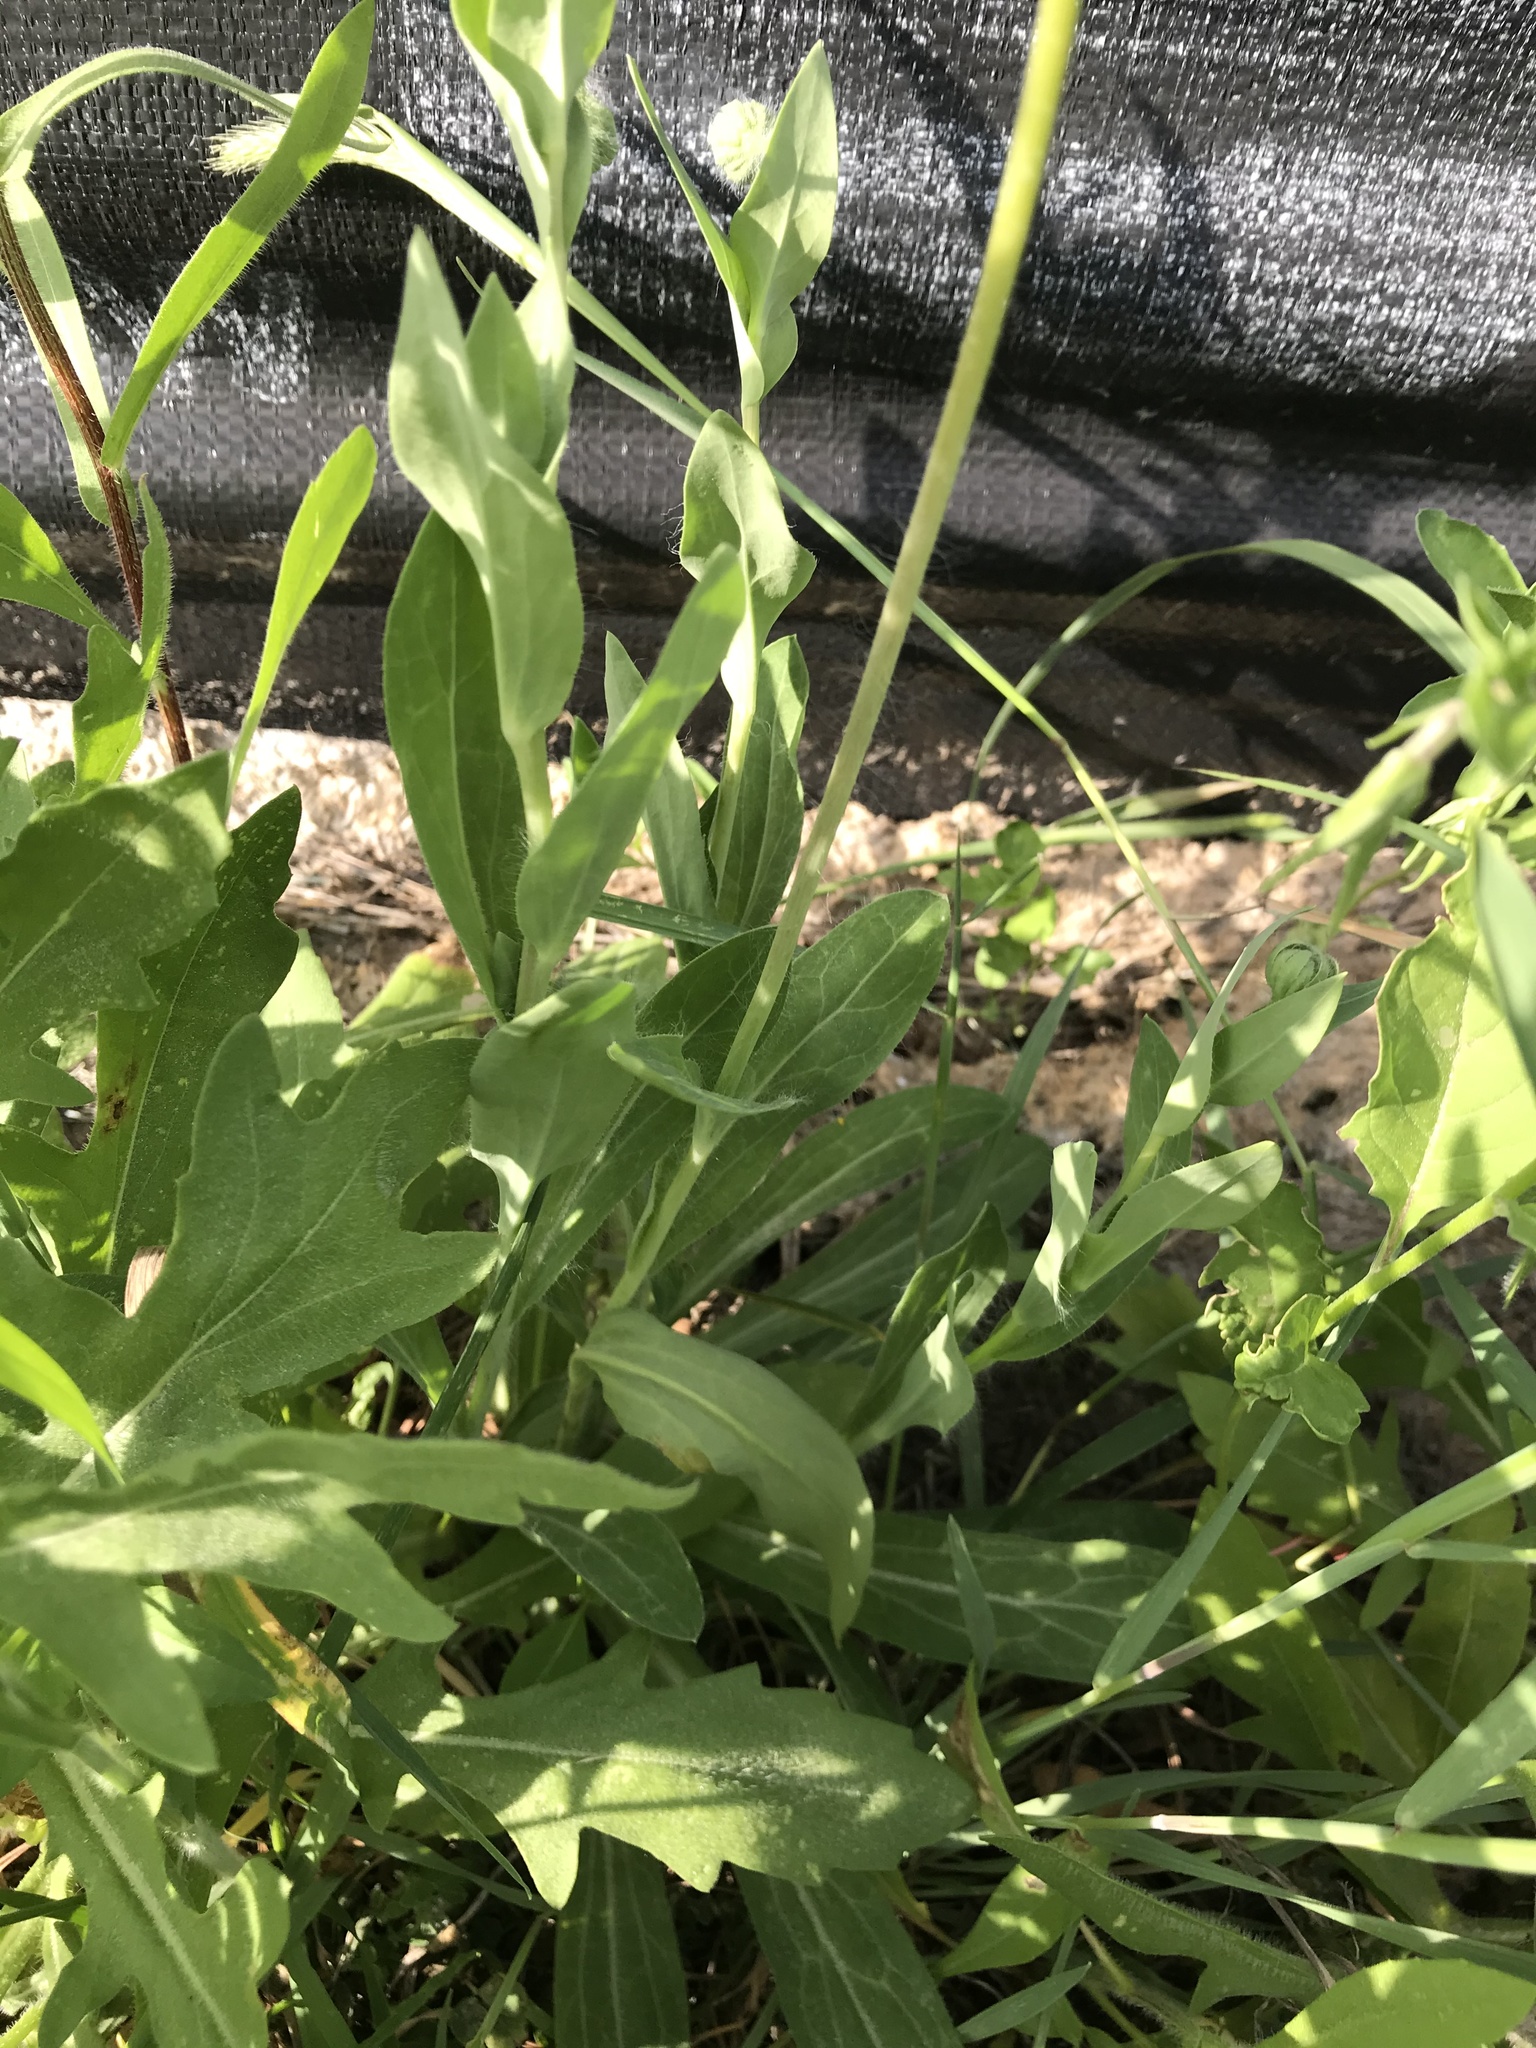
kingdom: Plantae
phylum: Tracheophyta
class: Magnoliopsida
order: Asterales
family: Asteraceae
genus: Amblyolepis
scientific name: Amblyolepis setigera
